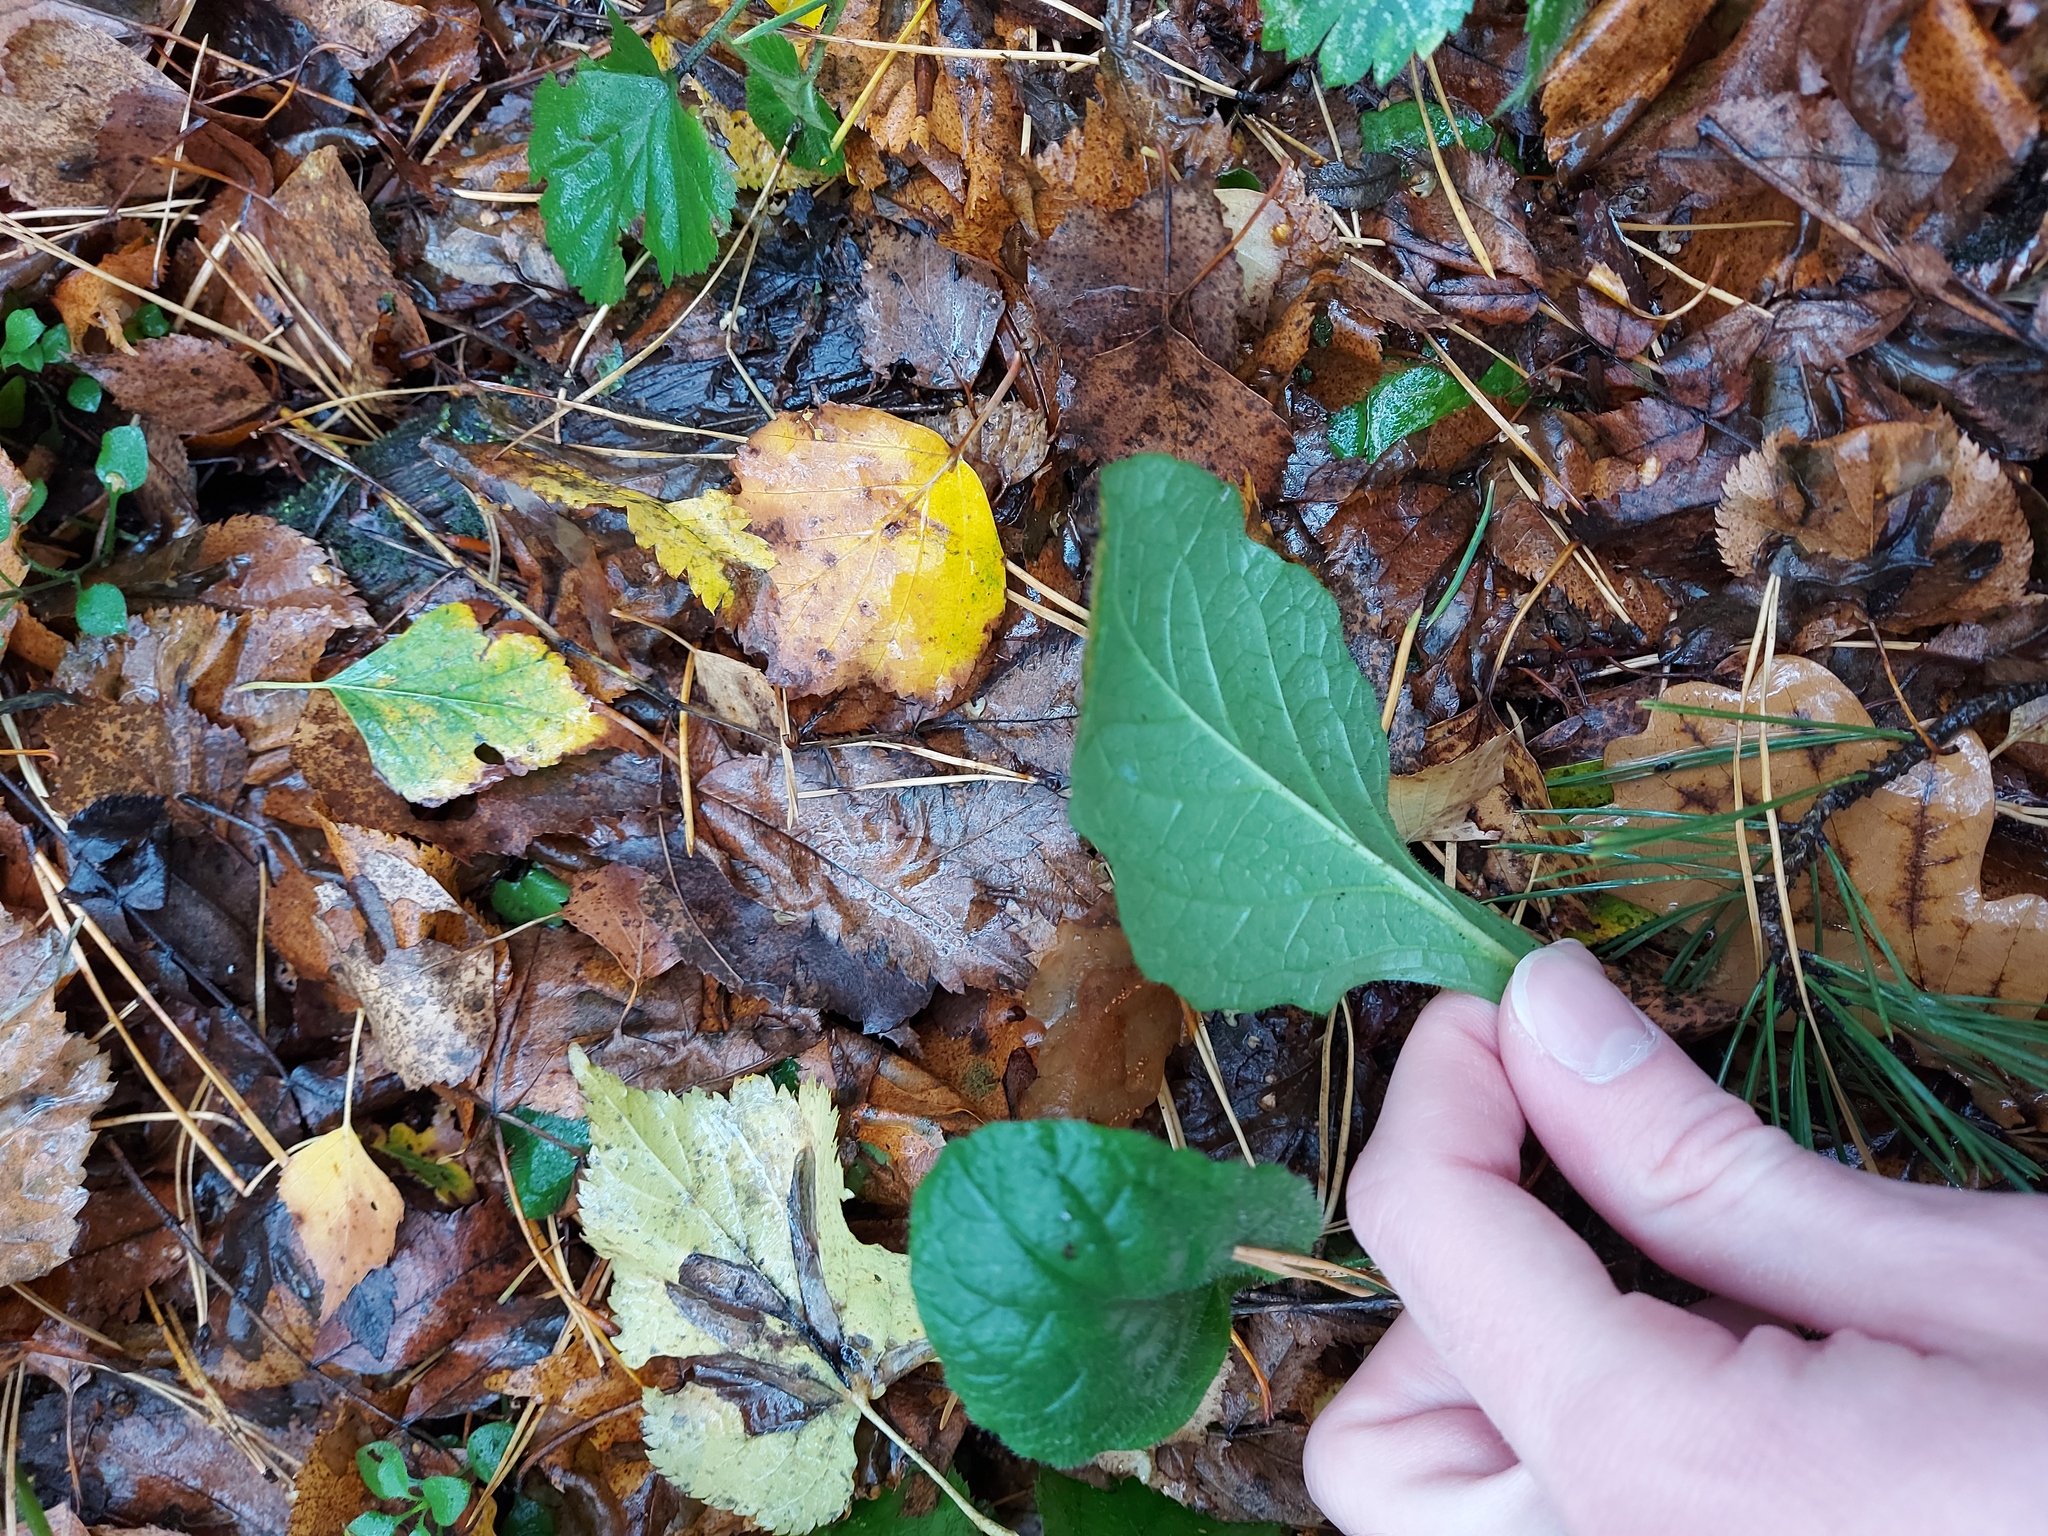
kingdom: Plantae
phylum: Tracheophyta
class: Magnoliopsida
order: Lamiales
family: Lamiaceae
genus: Ajuga
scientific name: Ajuga reptans
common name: Bugle
